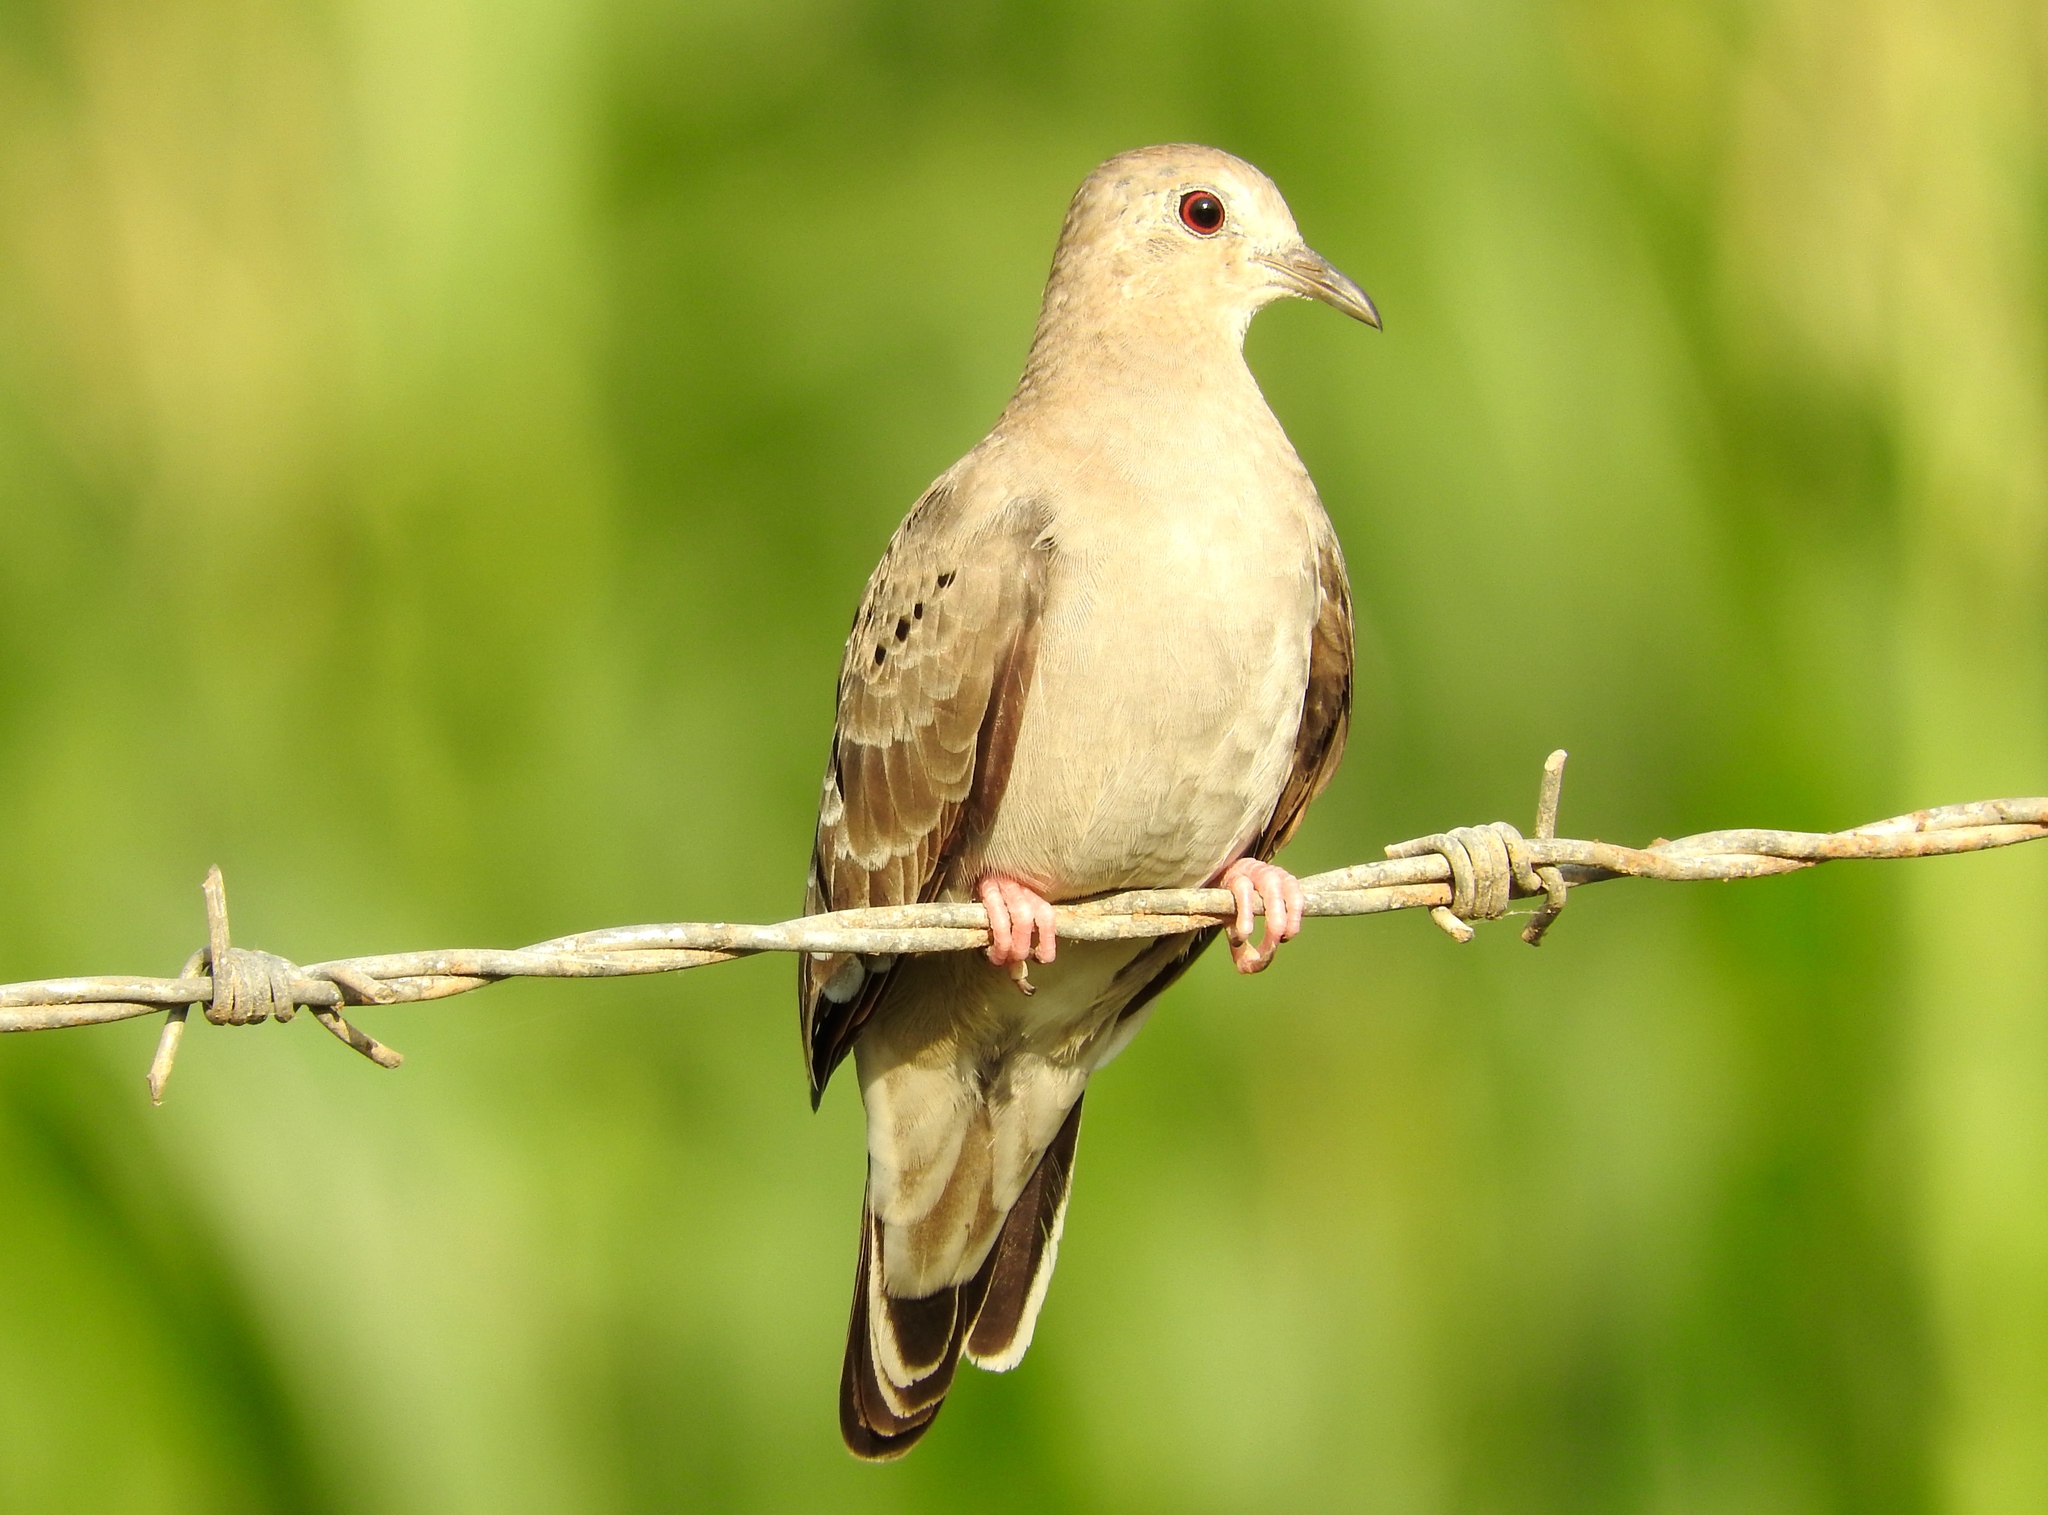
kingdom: Animalia
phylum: Chordata
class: Aves
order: Columbiformes
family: Columbidae
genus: Columbina
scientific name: Columbina talpacoti
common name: Ruddy ground dove
